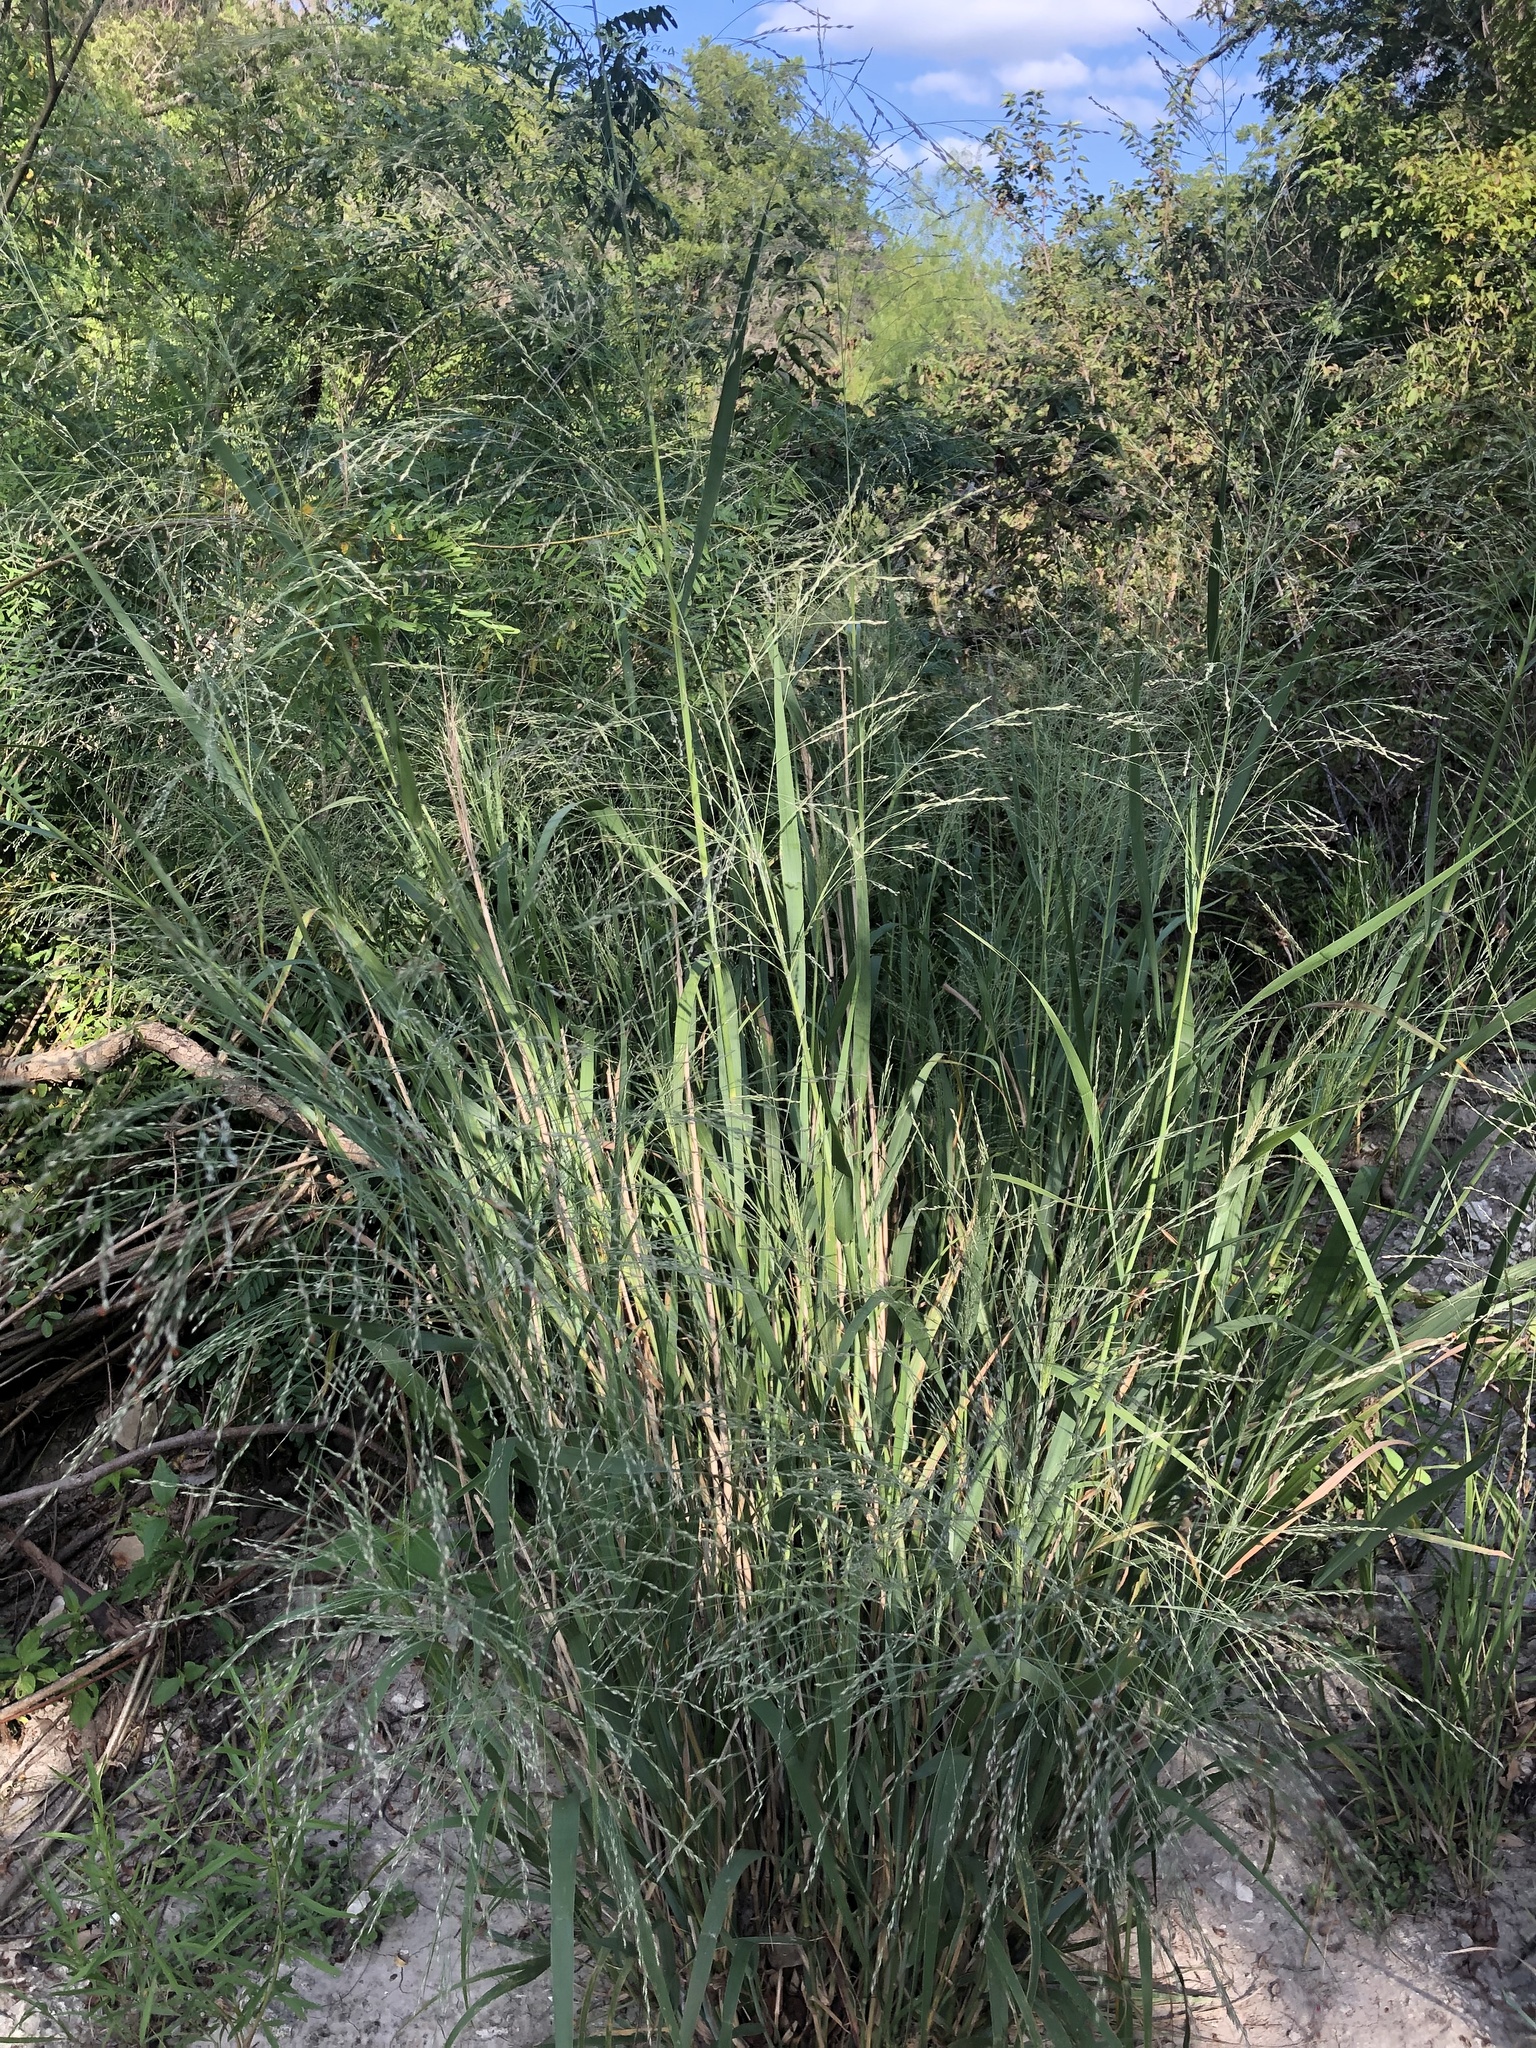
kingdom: Plantae
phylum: Tracheophyta
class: Liliopsida
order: Poales
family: Poaceae
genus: Panicum
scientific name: Panicum virgatum
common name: Switchgrass
